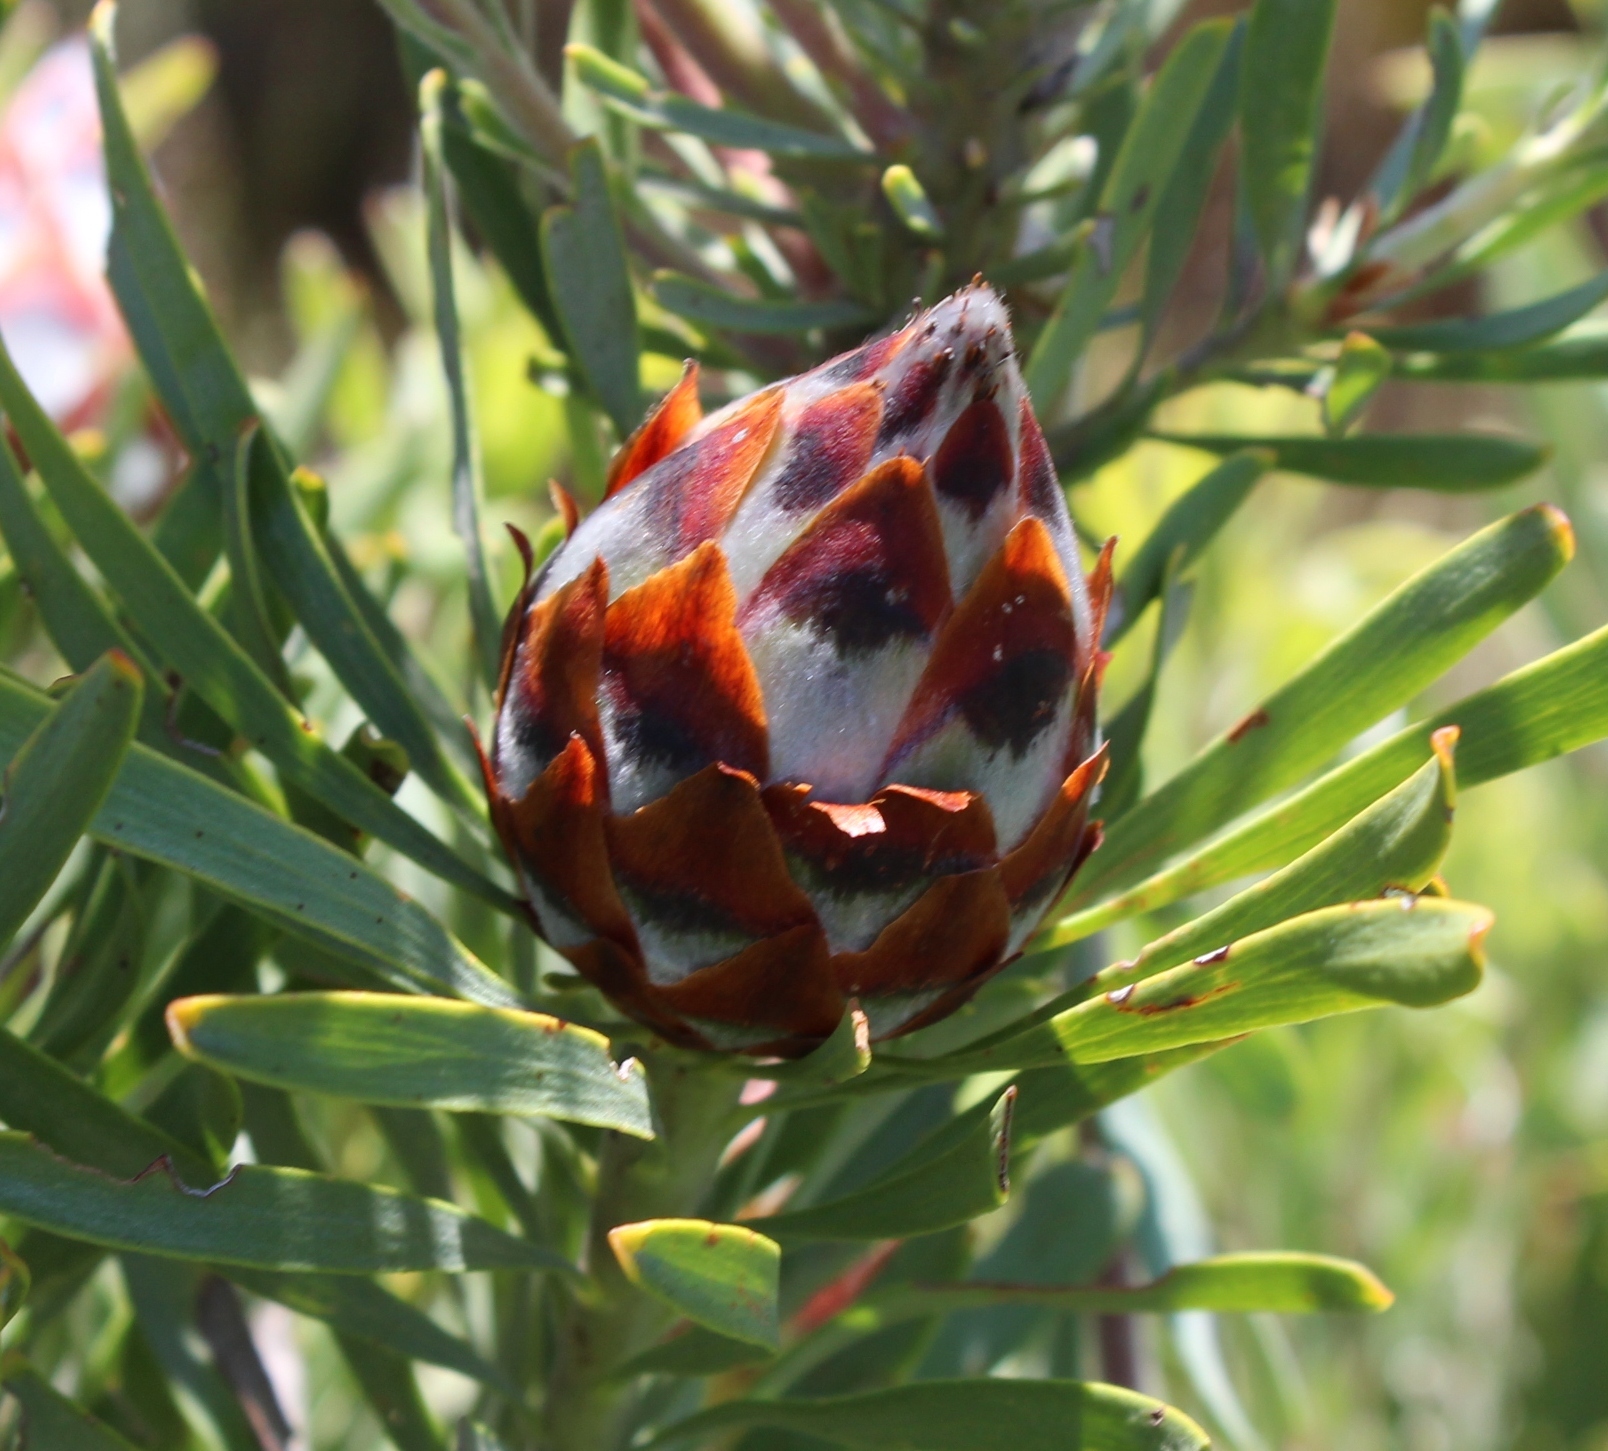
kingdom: Plantae
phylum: Tracheophyta
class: Magnoliopsida
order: Proteales
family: Proteaceae
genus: Leucadendron
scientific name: Leucadendron rubrum
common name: Spinning top
